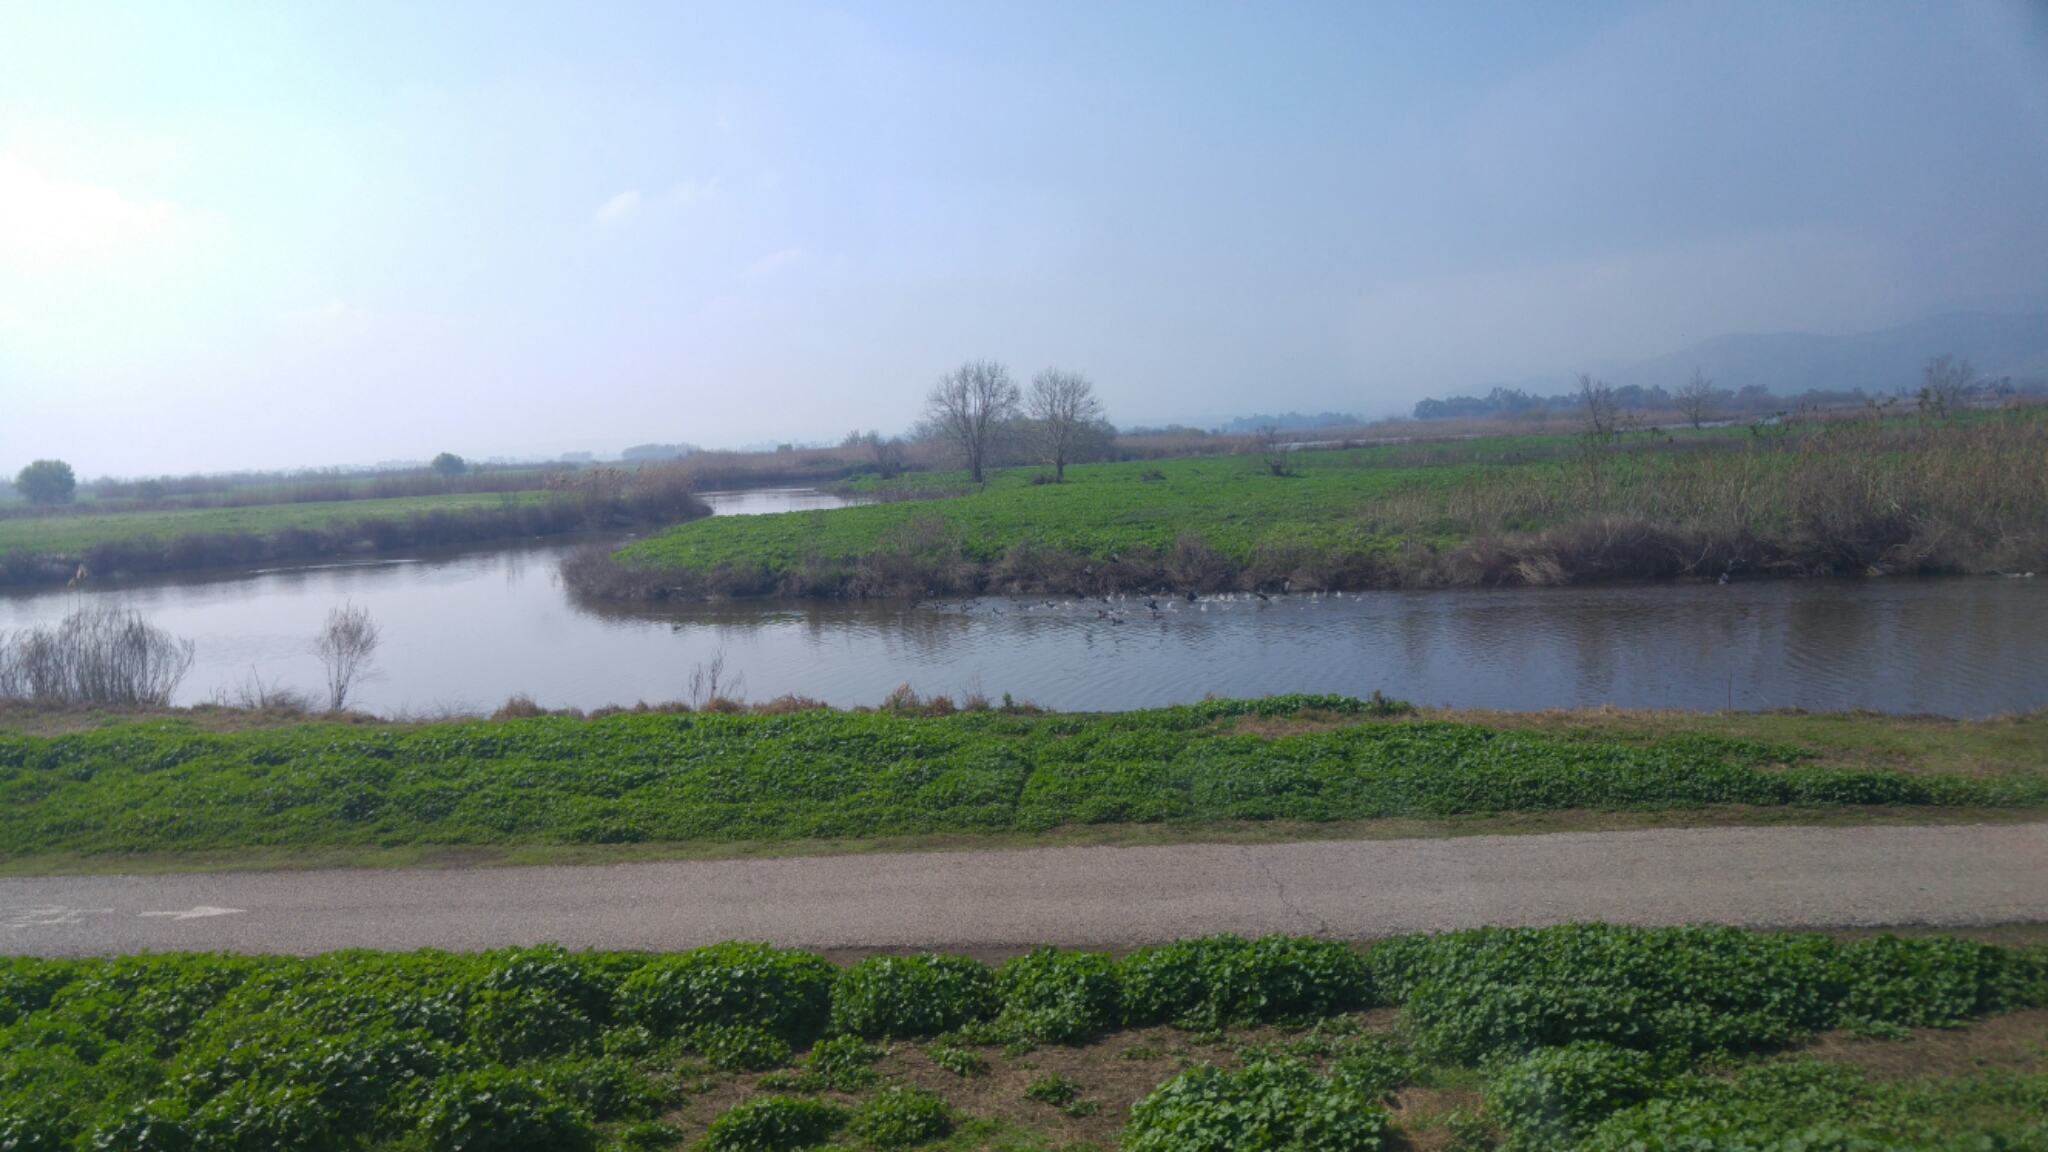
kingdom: Animalia
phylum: Chordata
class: Aves
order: Gruiformes
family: Rallidae
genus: Fulica
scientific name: Fulica atra
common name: Eurasian coot
